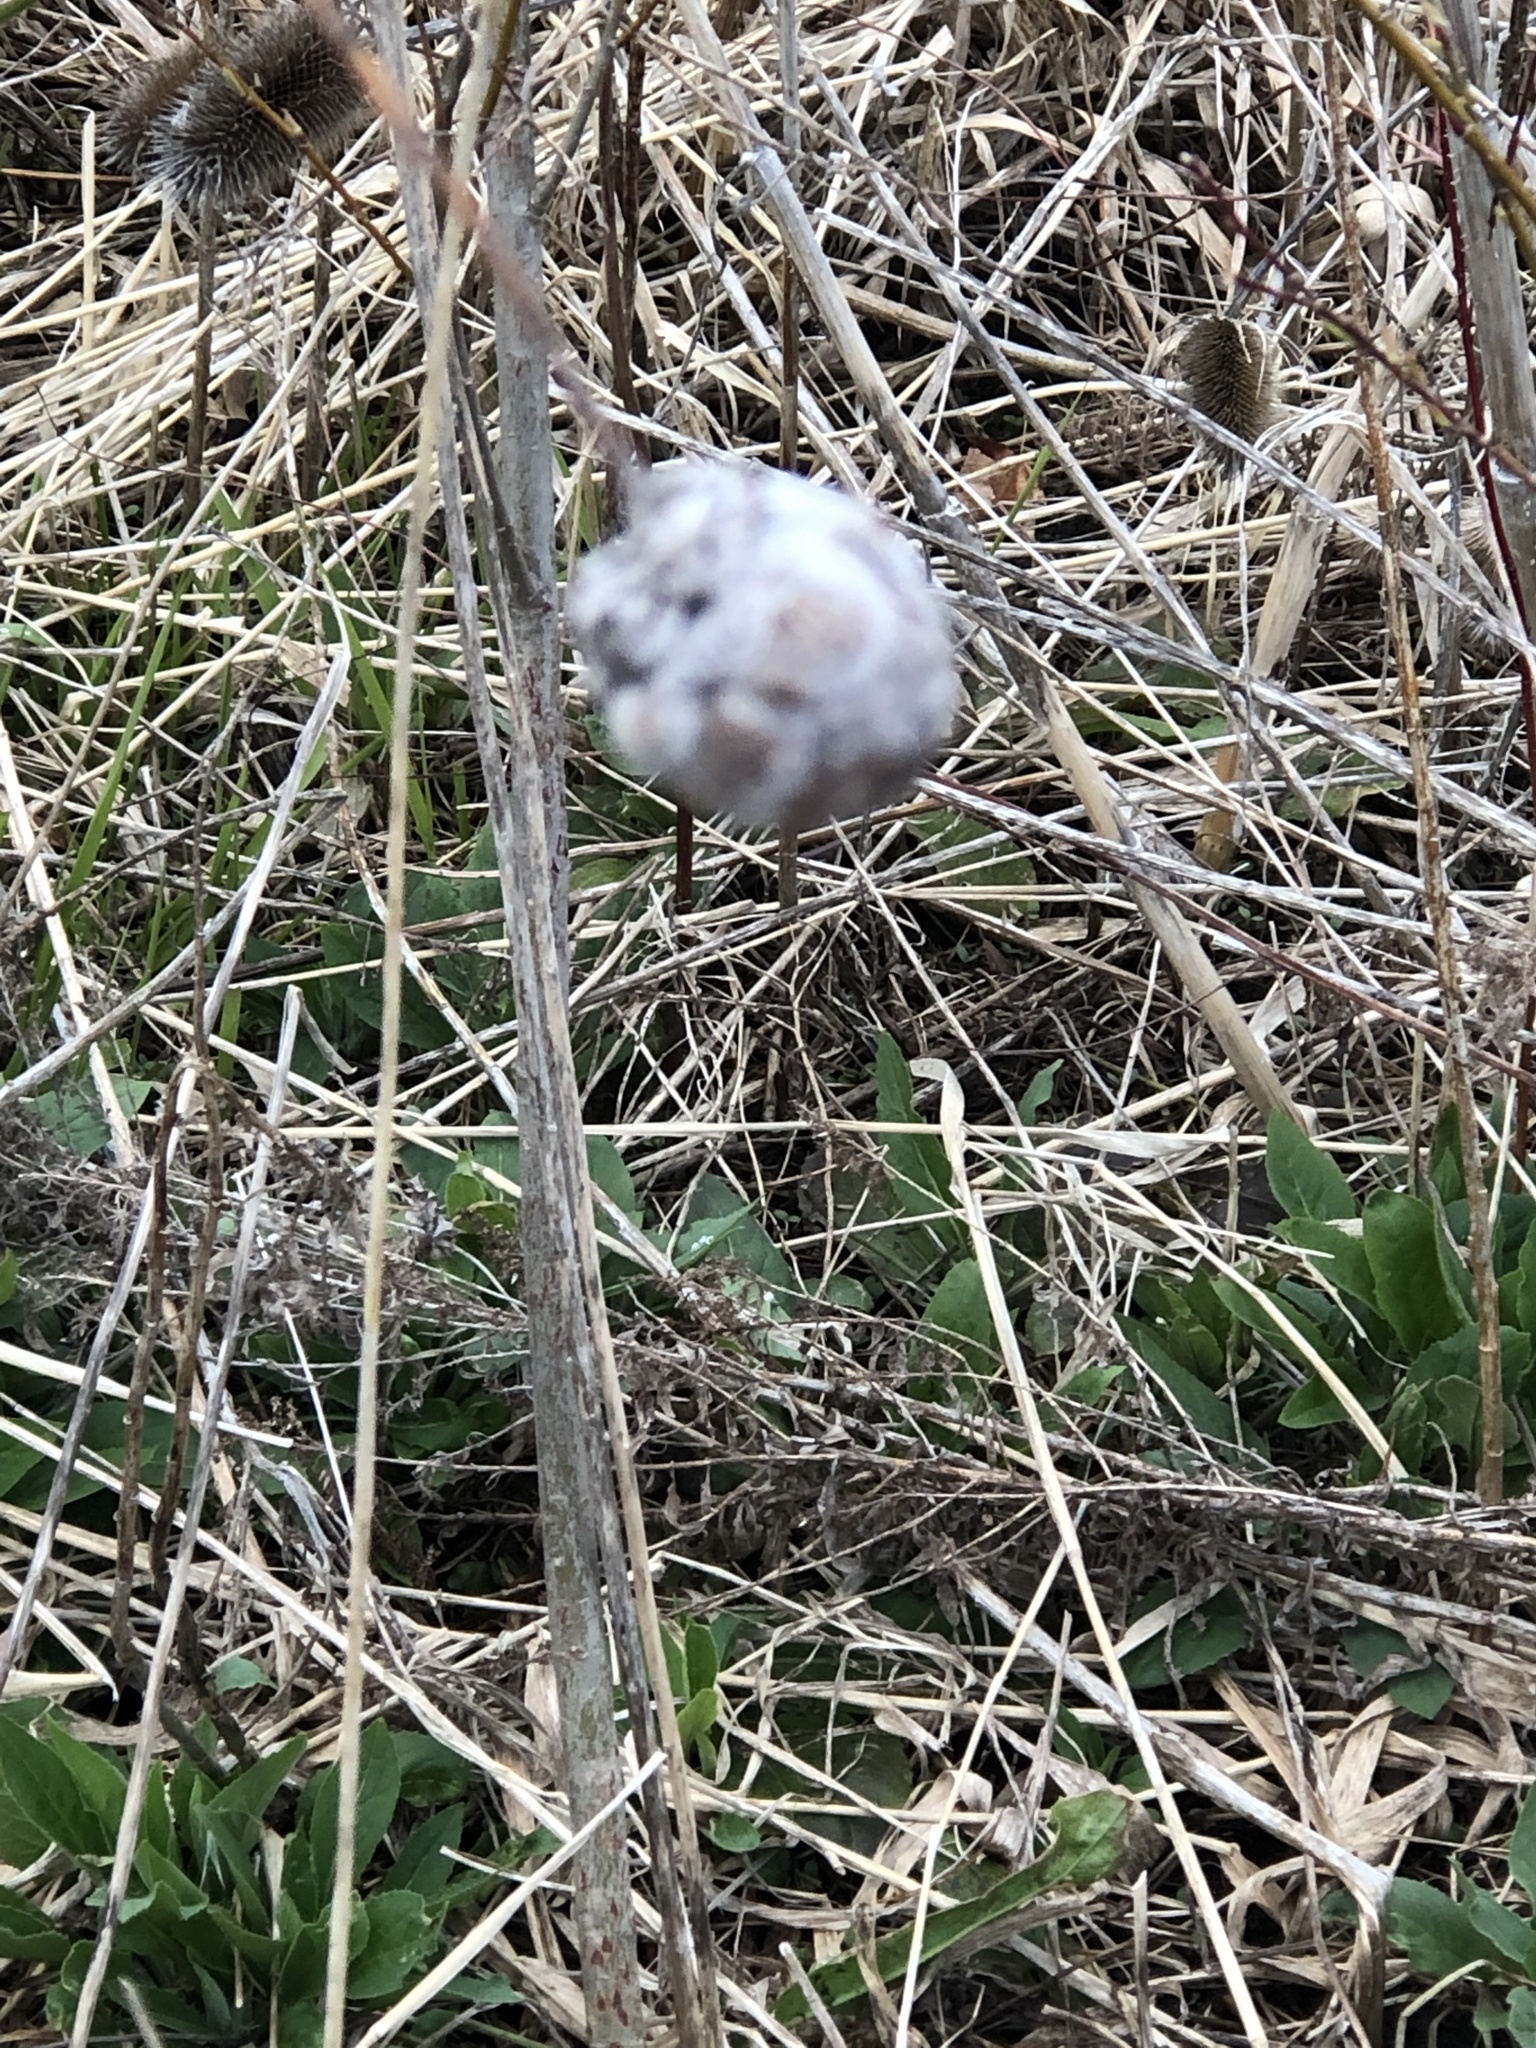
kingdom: Animalia
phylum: Arthropoda
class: Insecta
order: Diptera
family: Cecidomyiidae
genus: Rabdophaga
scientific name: Rabdophaga strobiloides
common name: Willow pinecone gall midge
